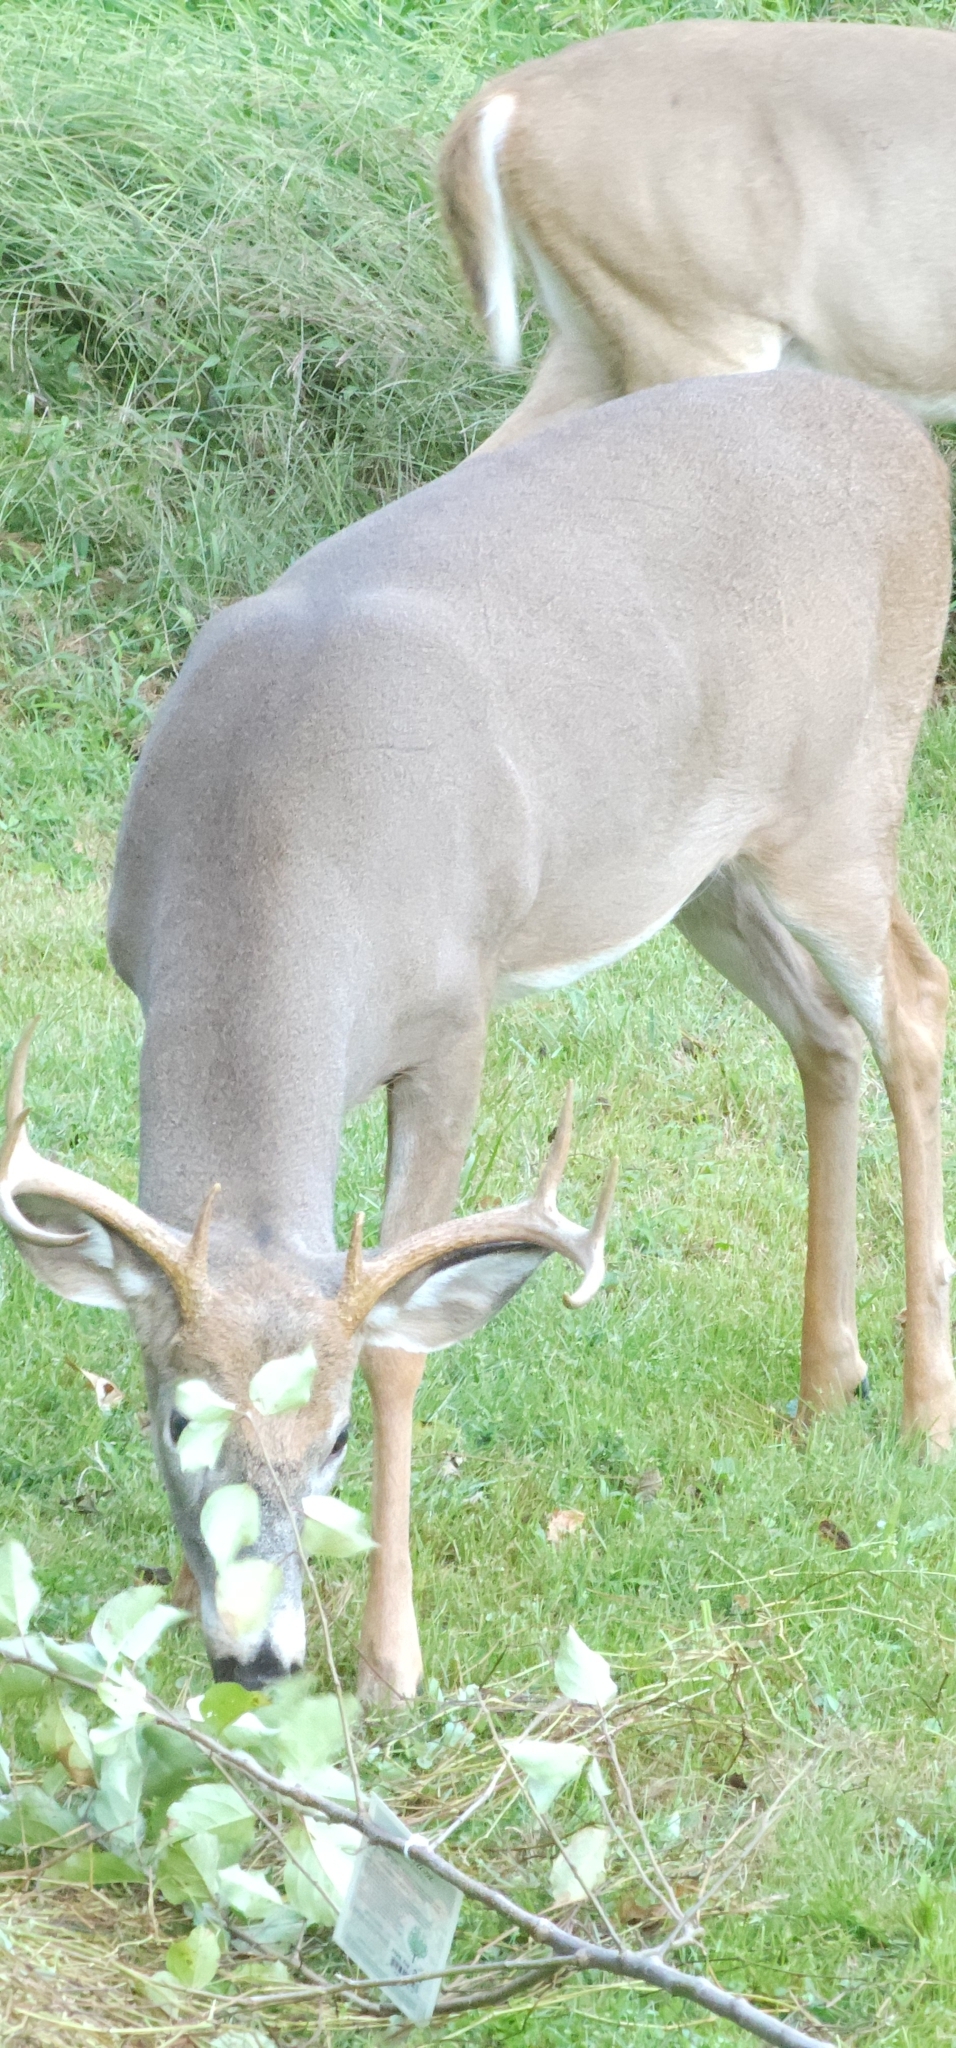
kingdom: Animalia
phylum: Chordata
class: Mammalia
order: Artiodactyla
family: Cervidae
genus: Odocoileus
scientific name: Odocoileus virginianus
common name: White-tailed deer
